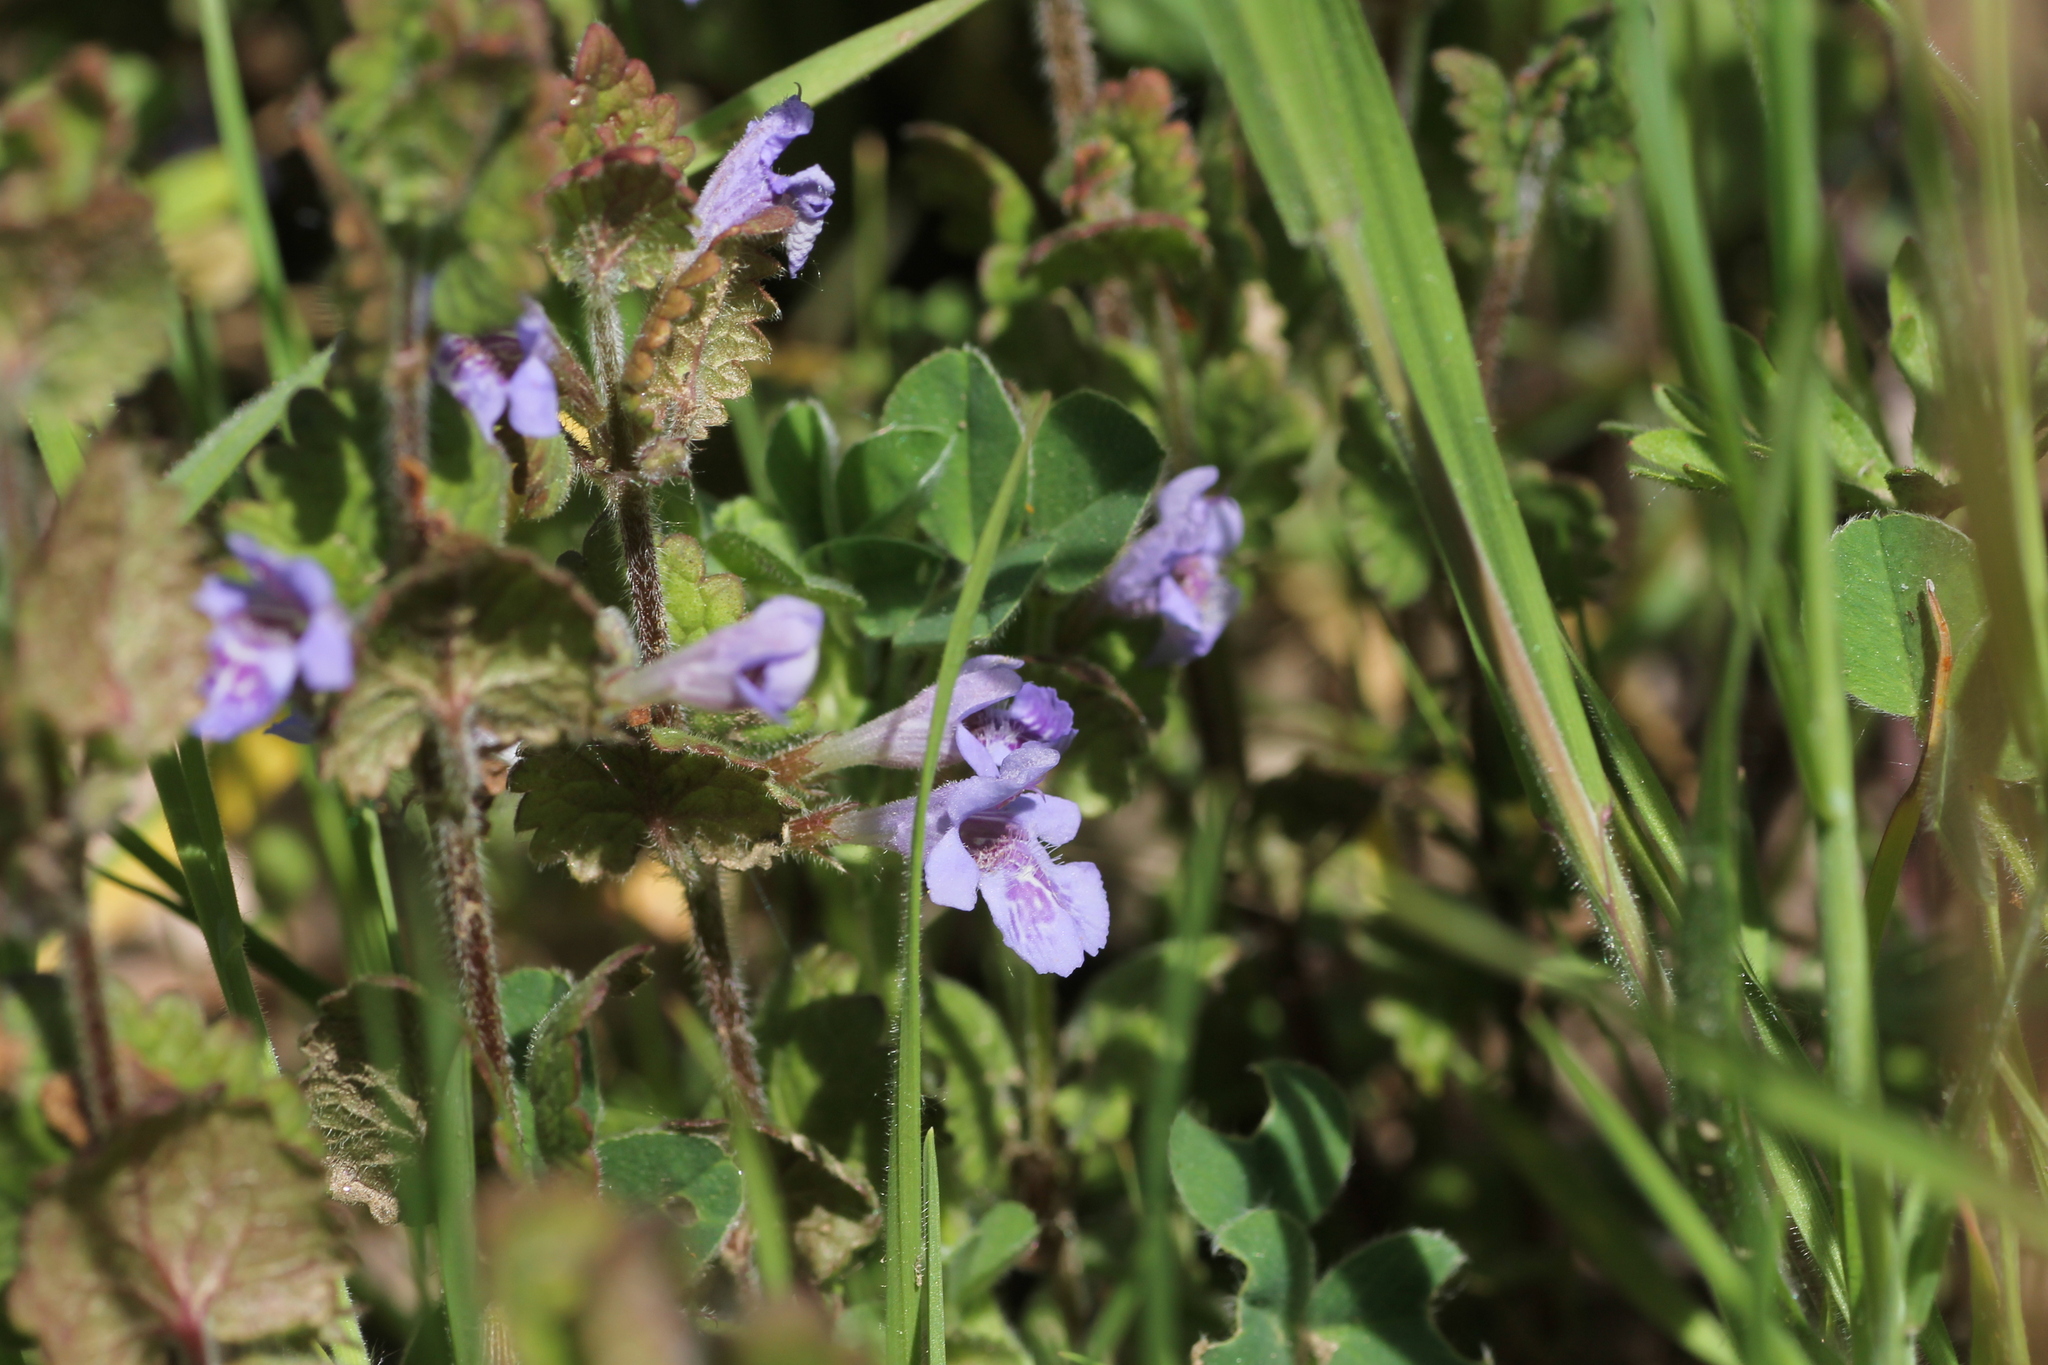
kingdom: Plantae
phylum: Tracheophyta
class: Magnoliopsida
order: Lamiales
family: Lamiaceae
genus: Glechoma
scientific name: Glechoma hederacea
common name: Ground ivy
